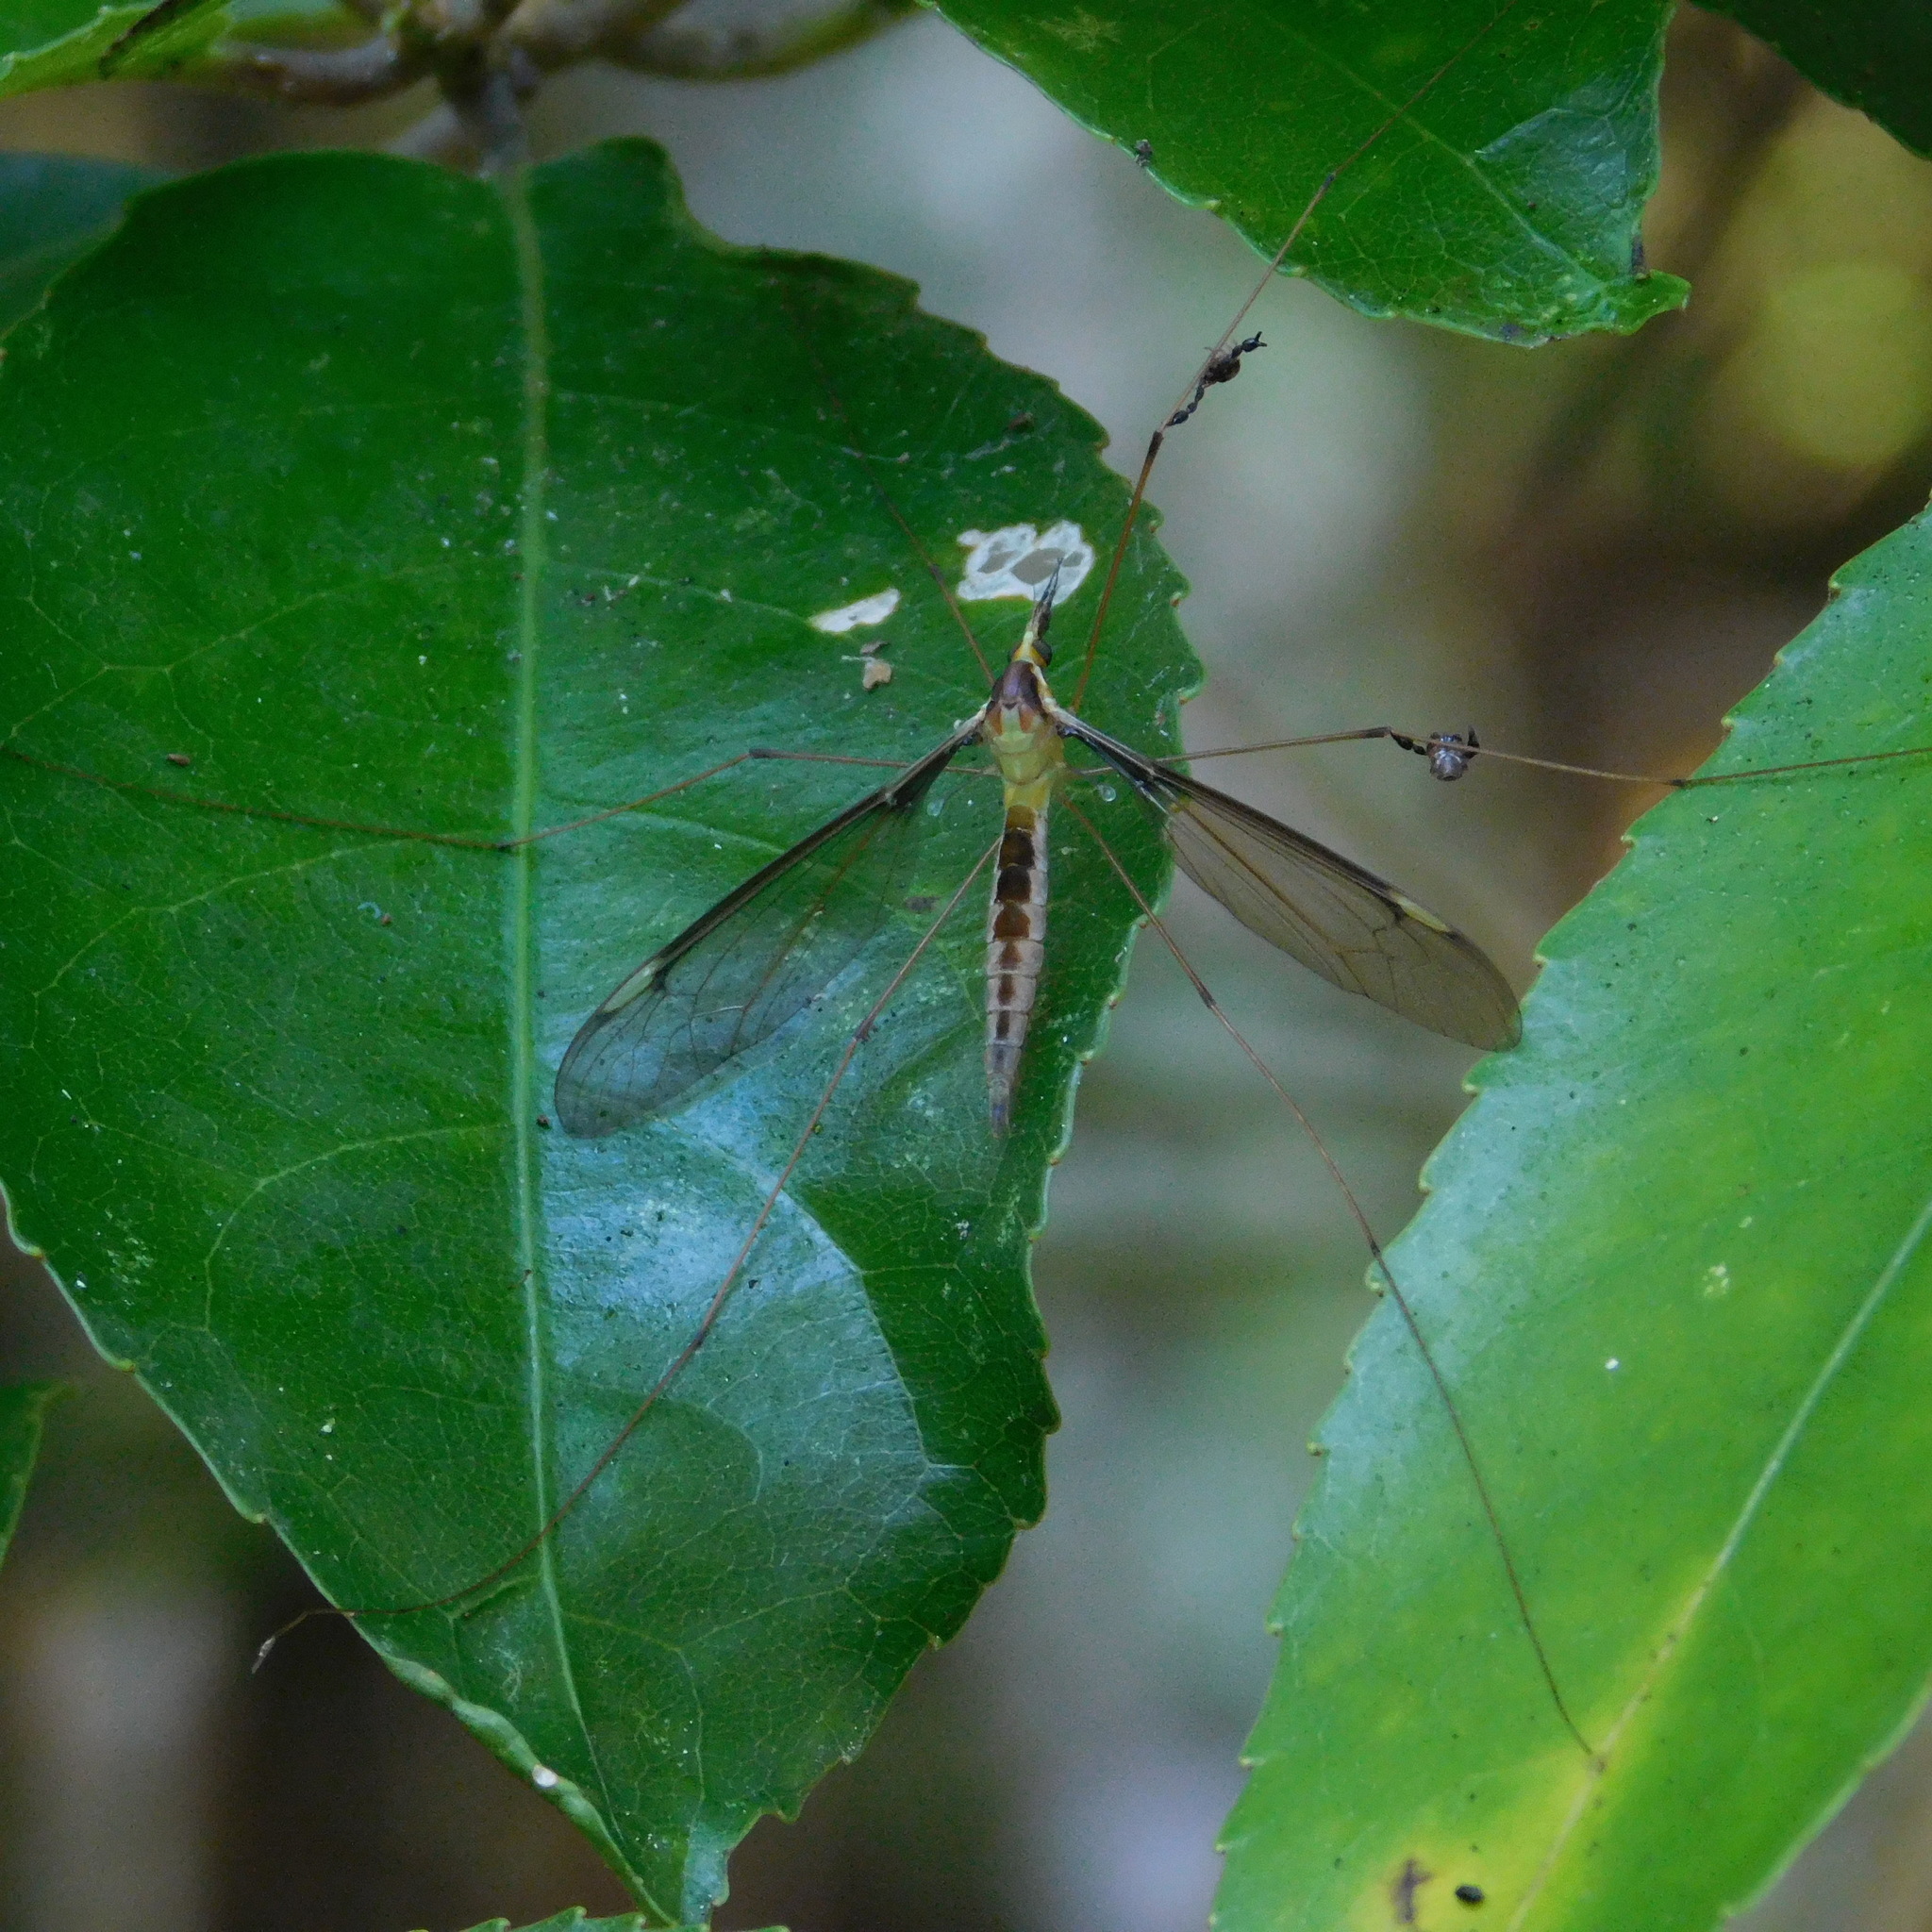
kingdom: Animalia
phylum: Arthropoda
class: Insecta
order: Diptera
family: Tipulidae
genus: Leptotarsus
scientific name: Leptotarsus albistigma
